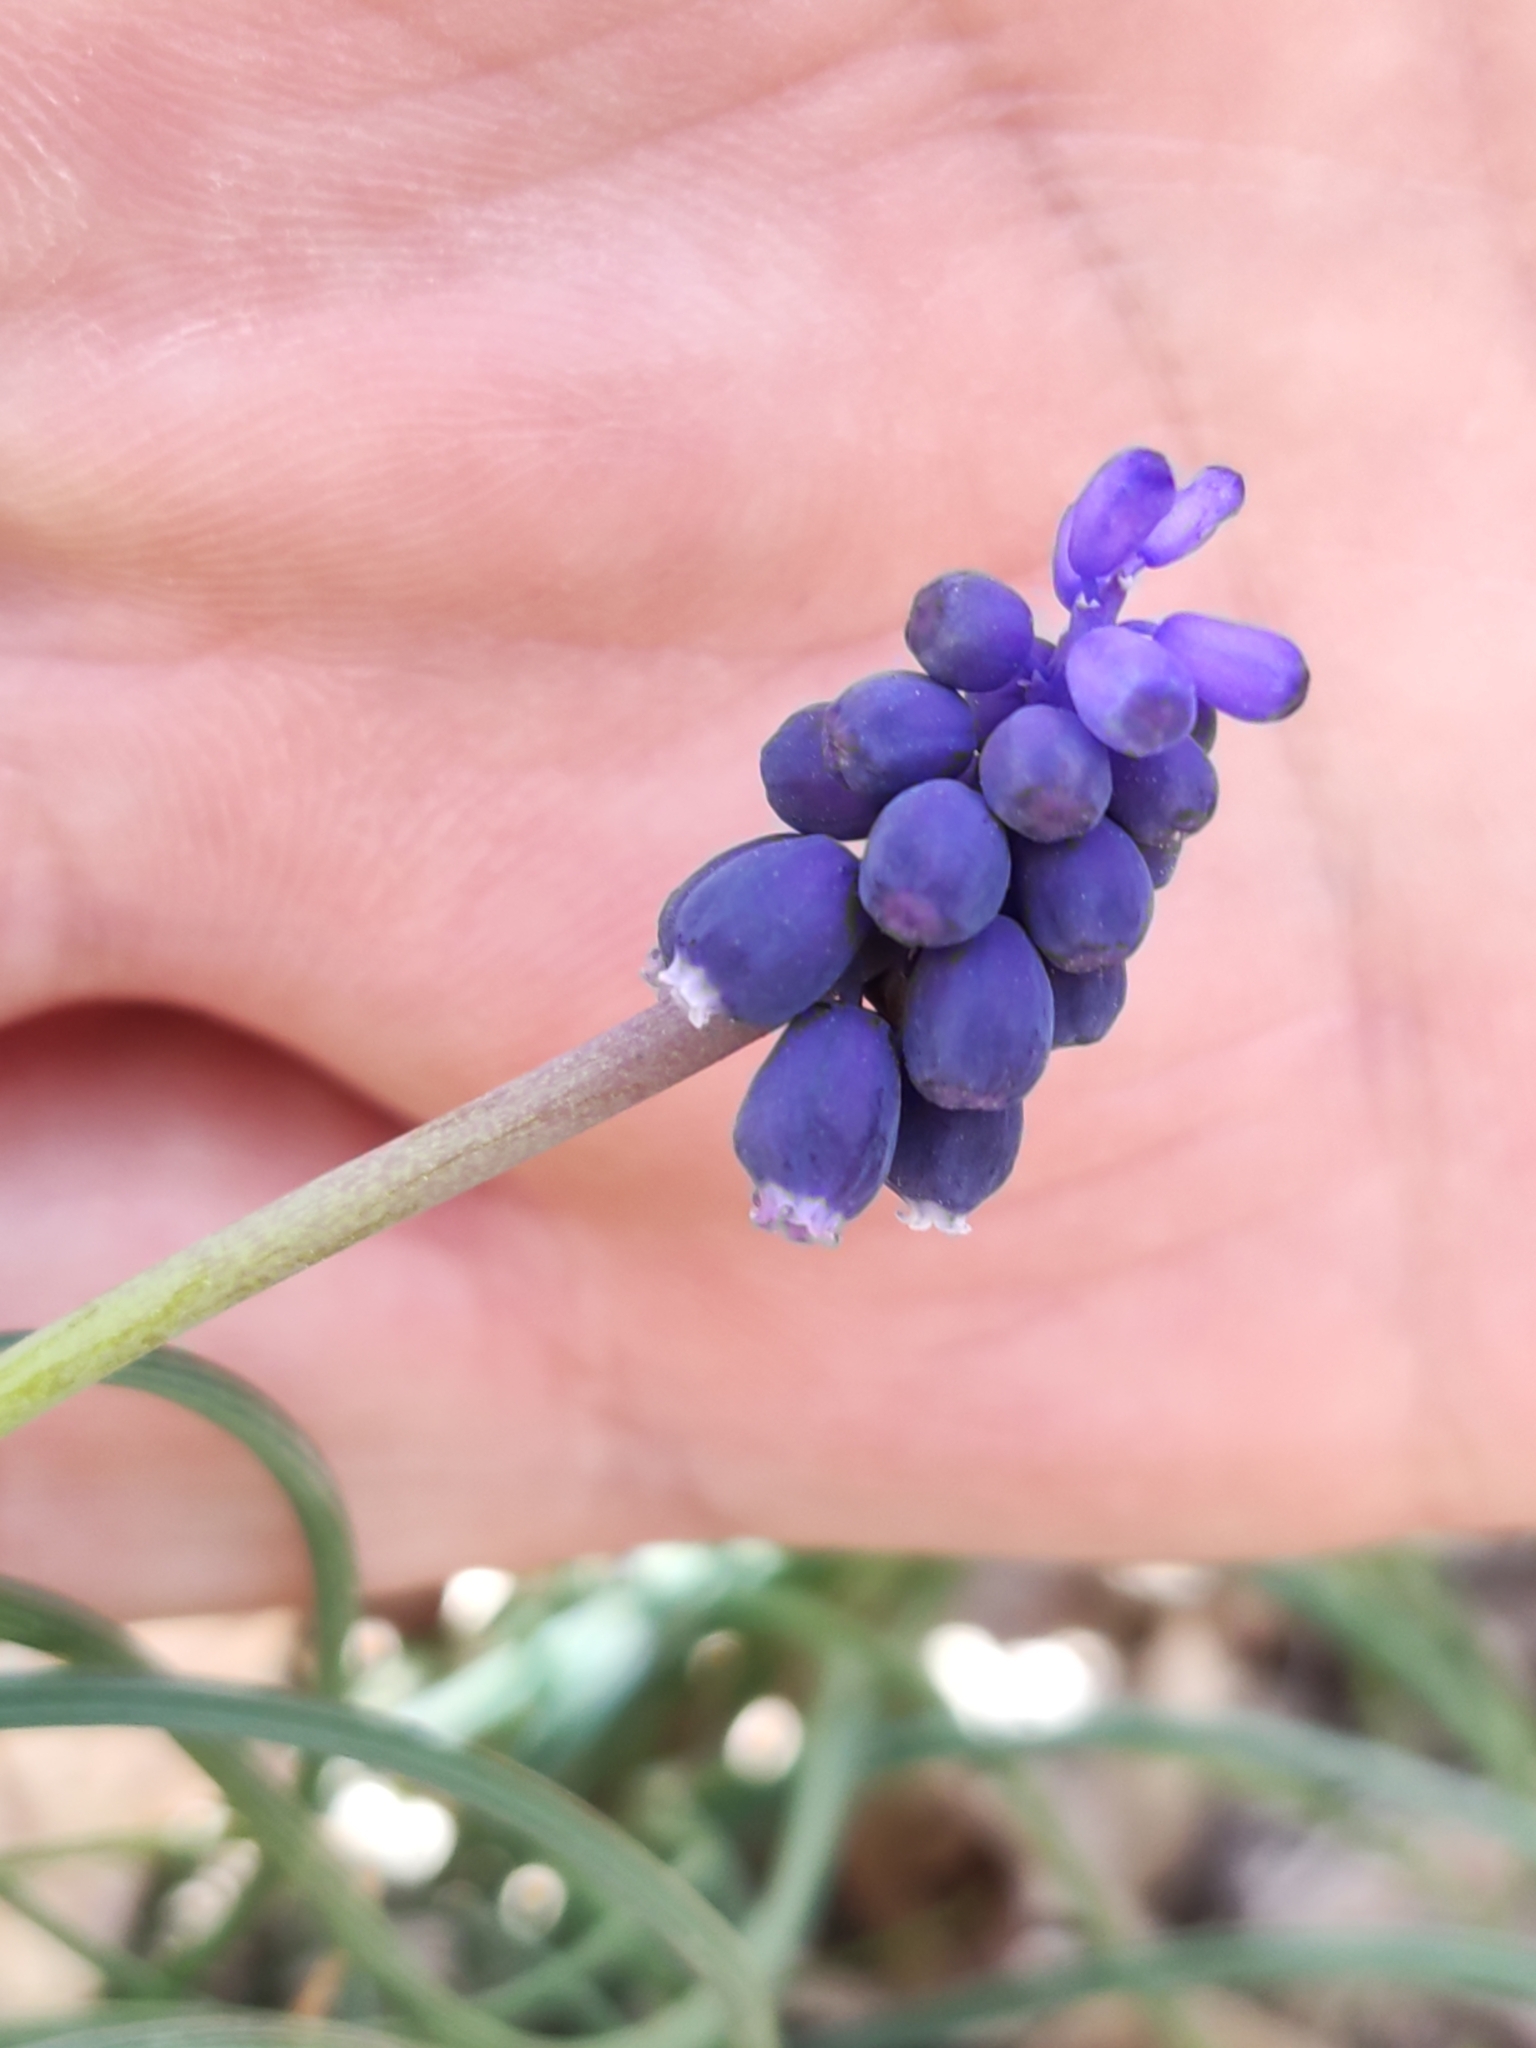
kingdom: Plantae
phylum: Tracheophyta
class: Liliopsida
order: Asparagales
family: Asparagaceae
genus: Muscari
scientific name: Muscari neglectum
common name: Grape-hyacinth
